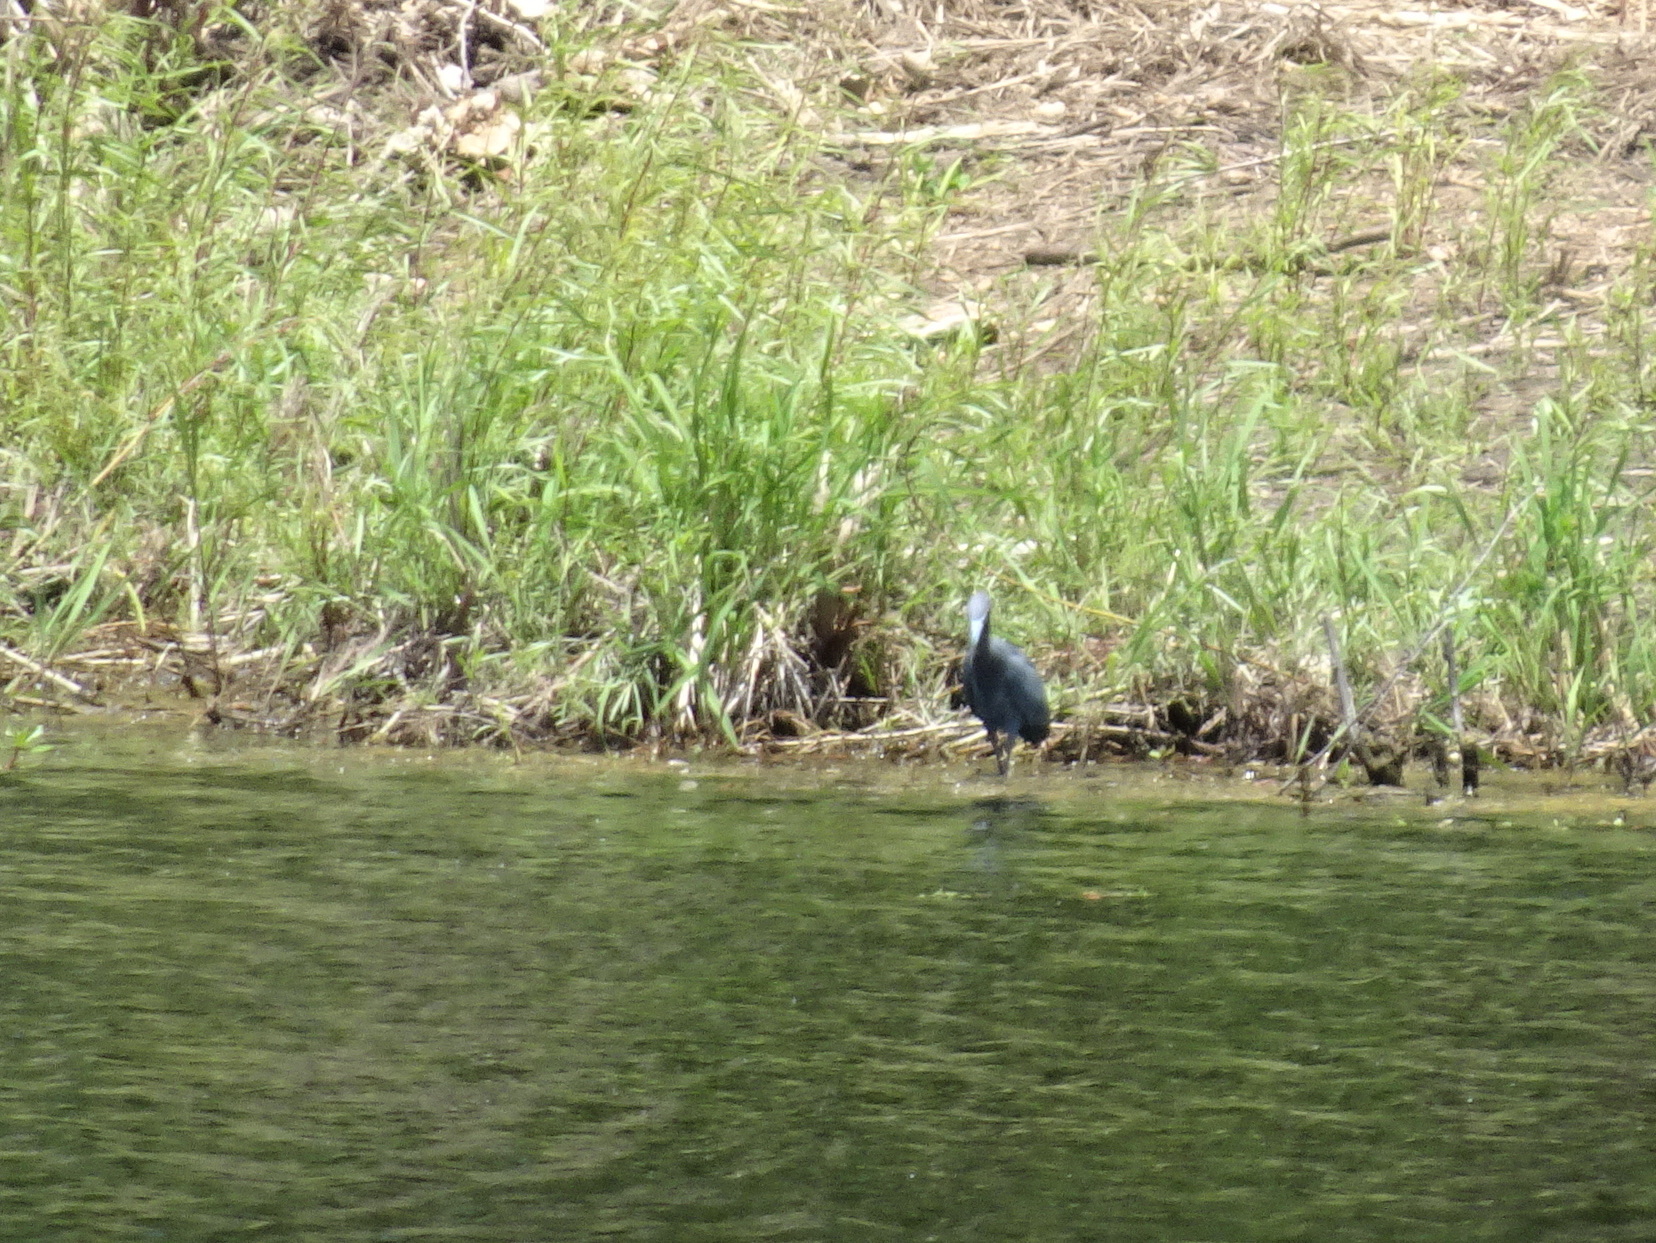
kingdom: Animalia
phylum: Chordata
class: Aves
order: Pelecaniformes
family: Ardeidae
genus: Egretta
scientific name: Egretta caerulea
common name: Little blue heron
